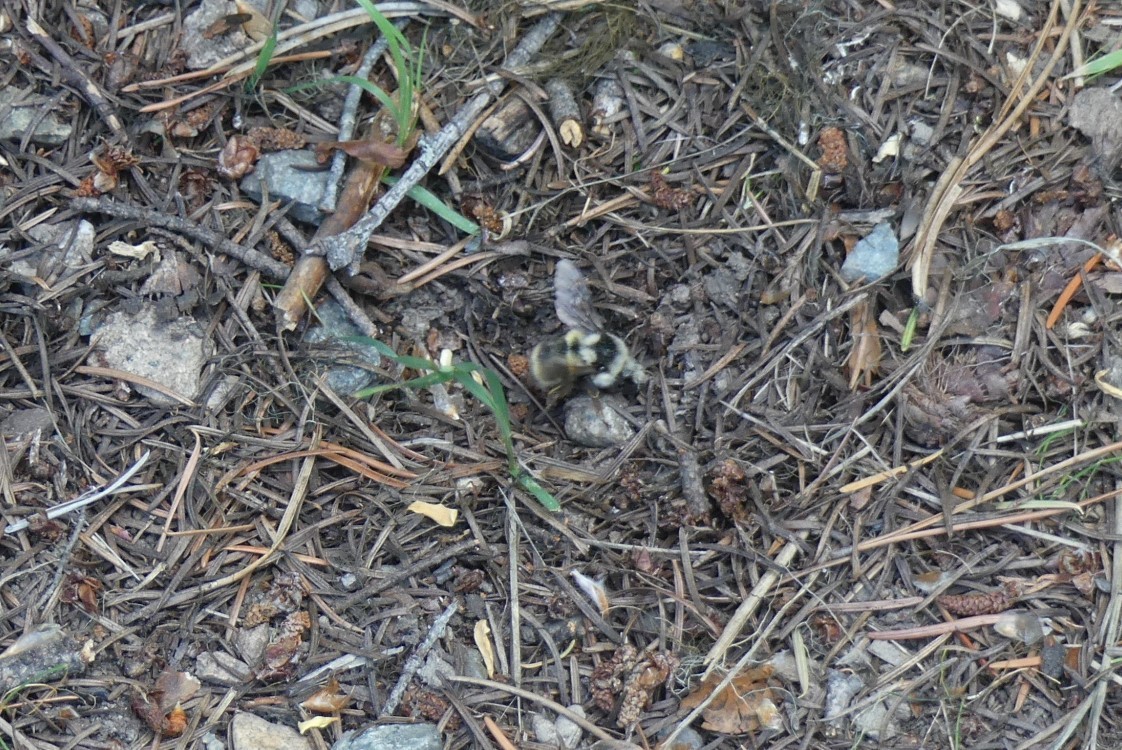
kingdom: Animalia
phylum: Arthropoda
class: Insecta
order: Hymenoptera
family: Apidae
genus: Bombus
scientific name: Bombus vancouverensis
